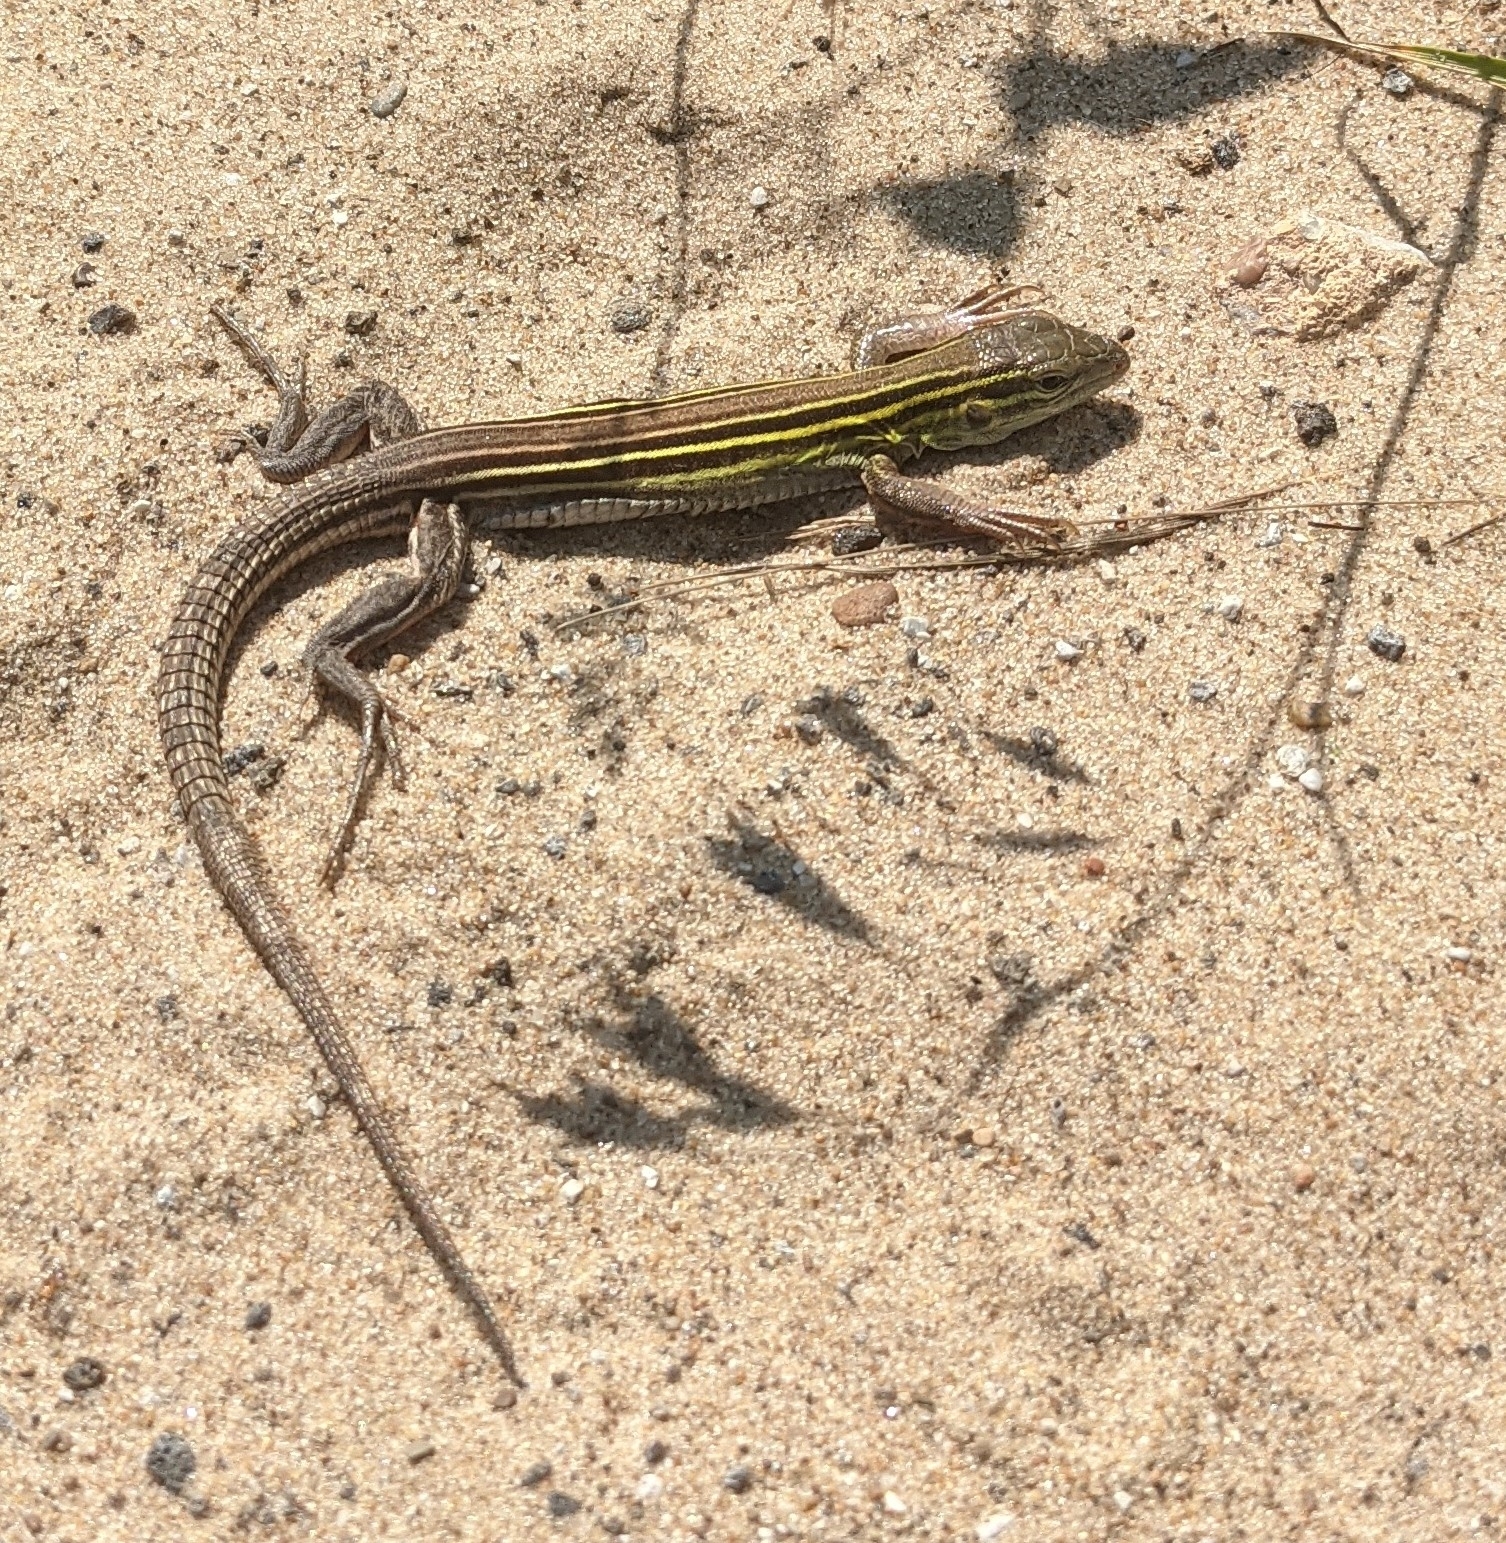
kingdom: Animalia
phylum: Chordata
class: Squamata
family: Teiidae
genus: Aspidoscelis
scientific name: Aspidoscelis sexlineatus
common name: Six-lined racerunner
